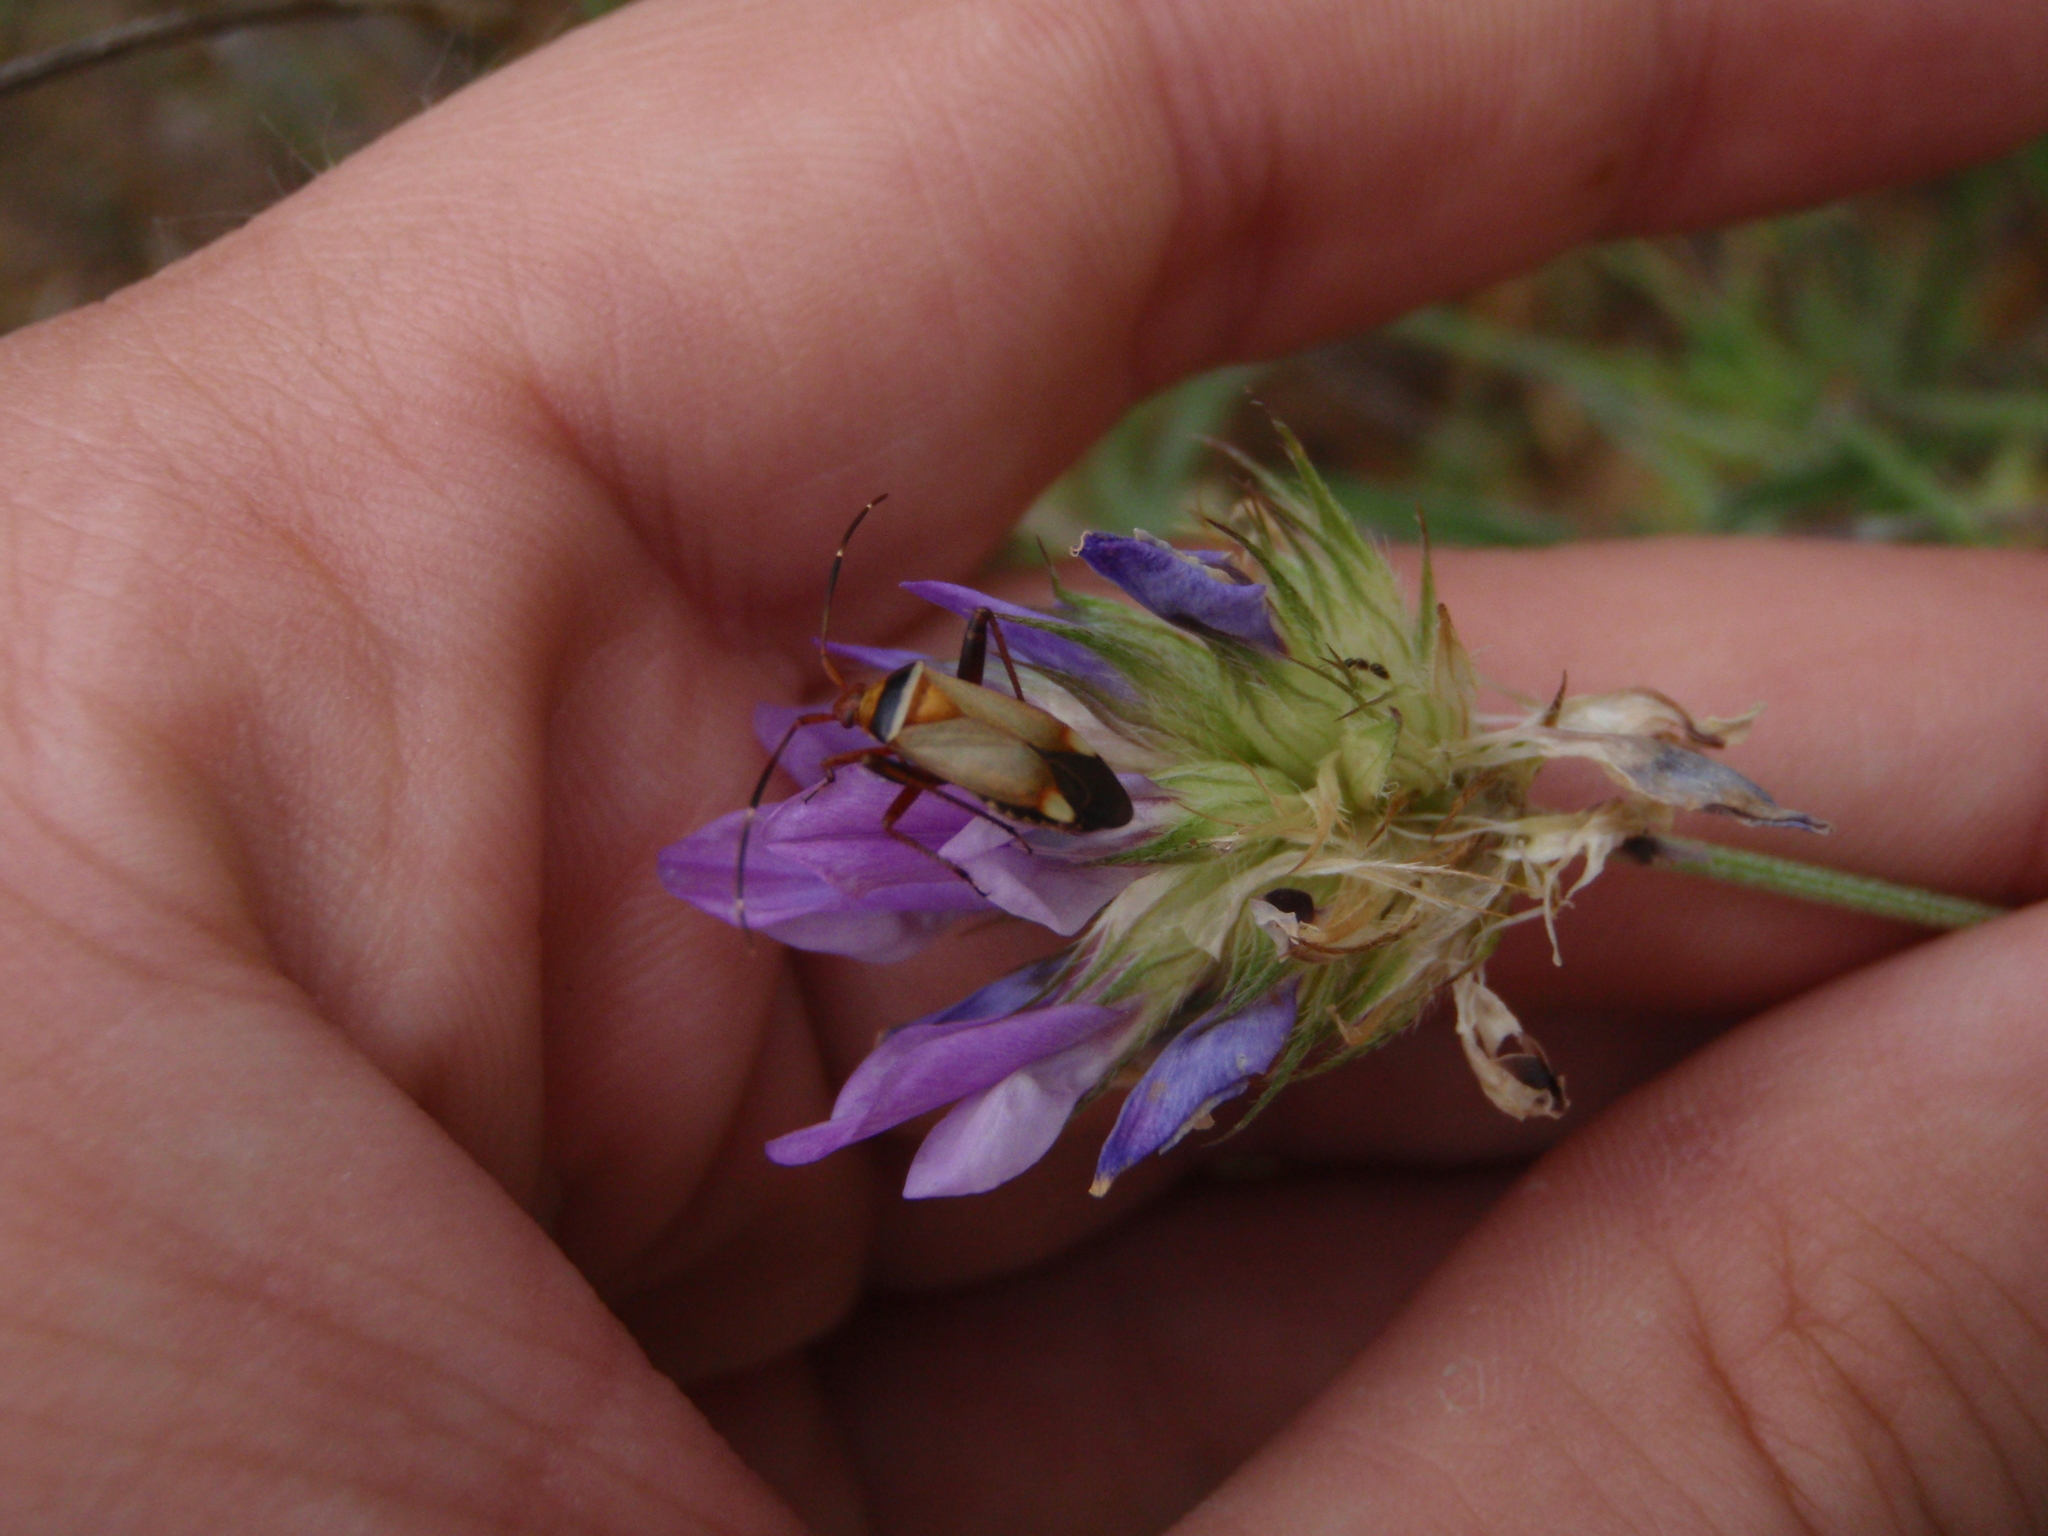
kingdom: Animalia
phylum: Arthropoda
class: Insecta
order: Hemiptera
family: Miridae
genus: Adelphocoris
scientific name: Adelphocoris vandalicus
